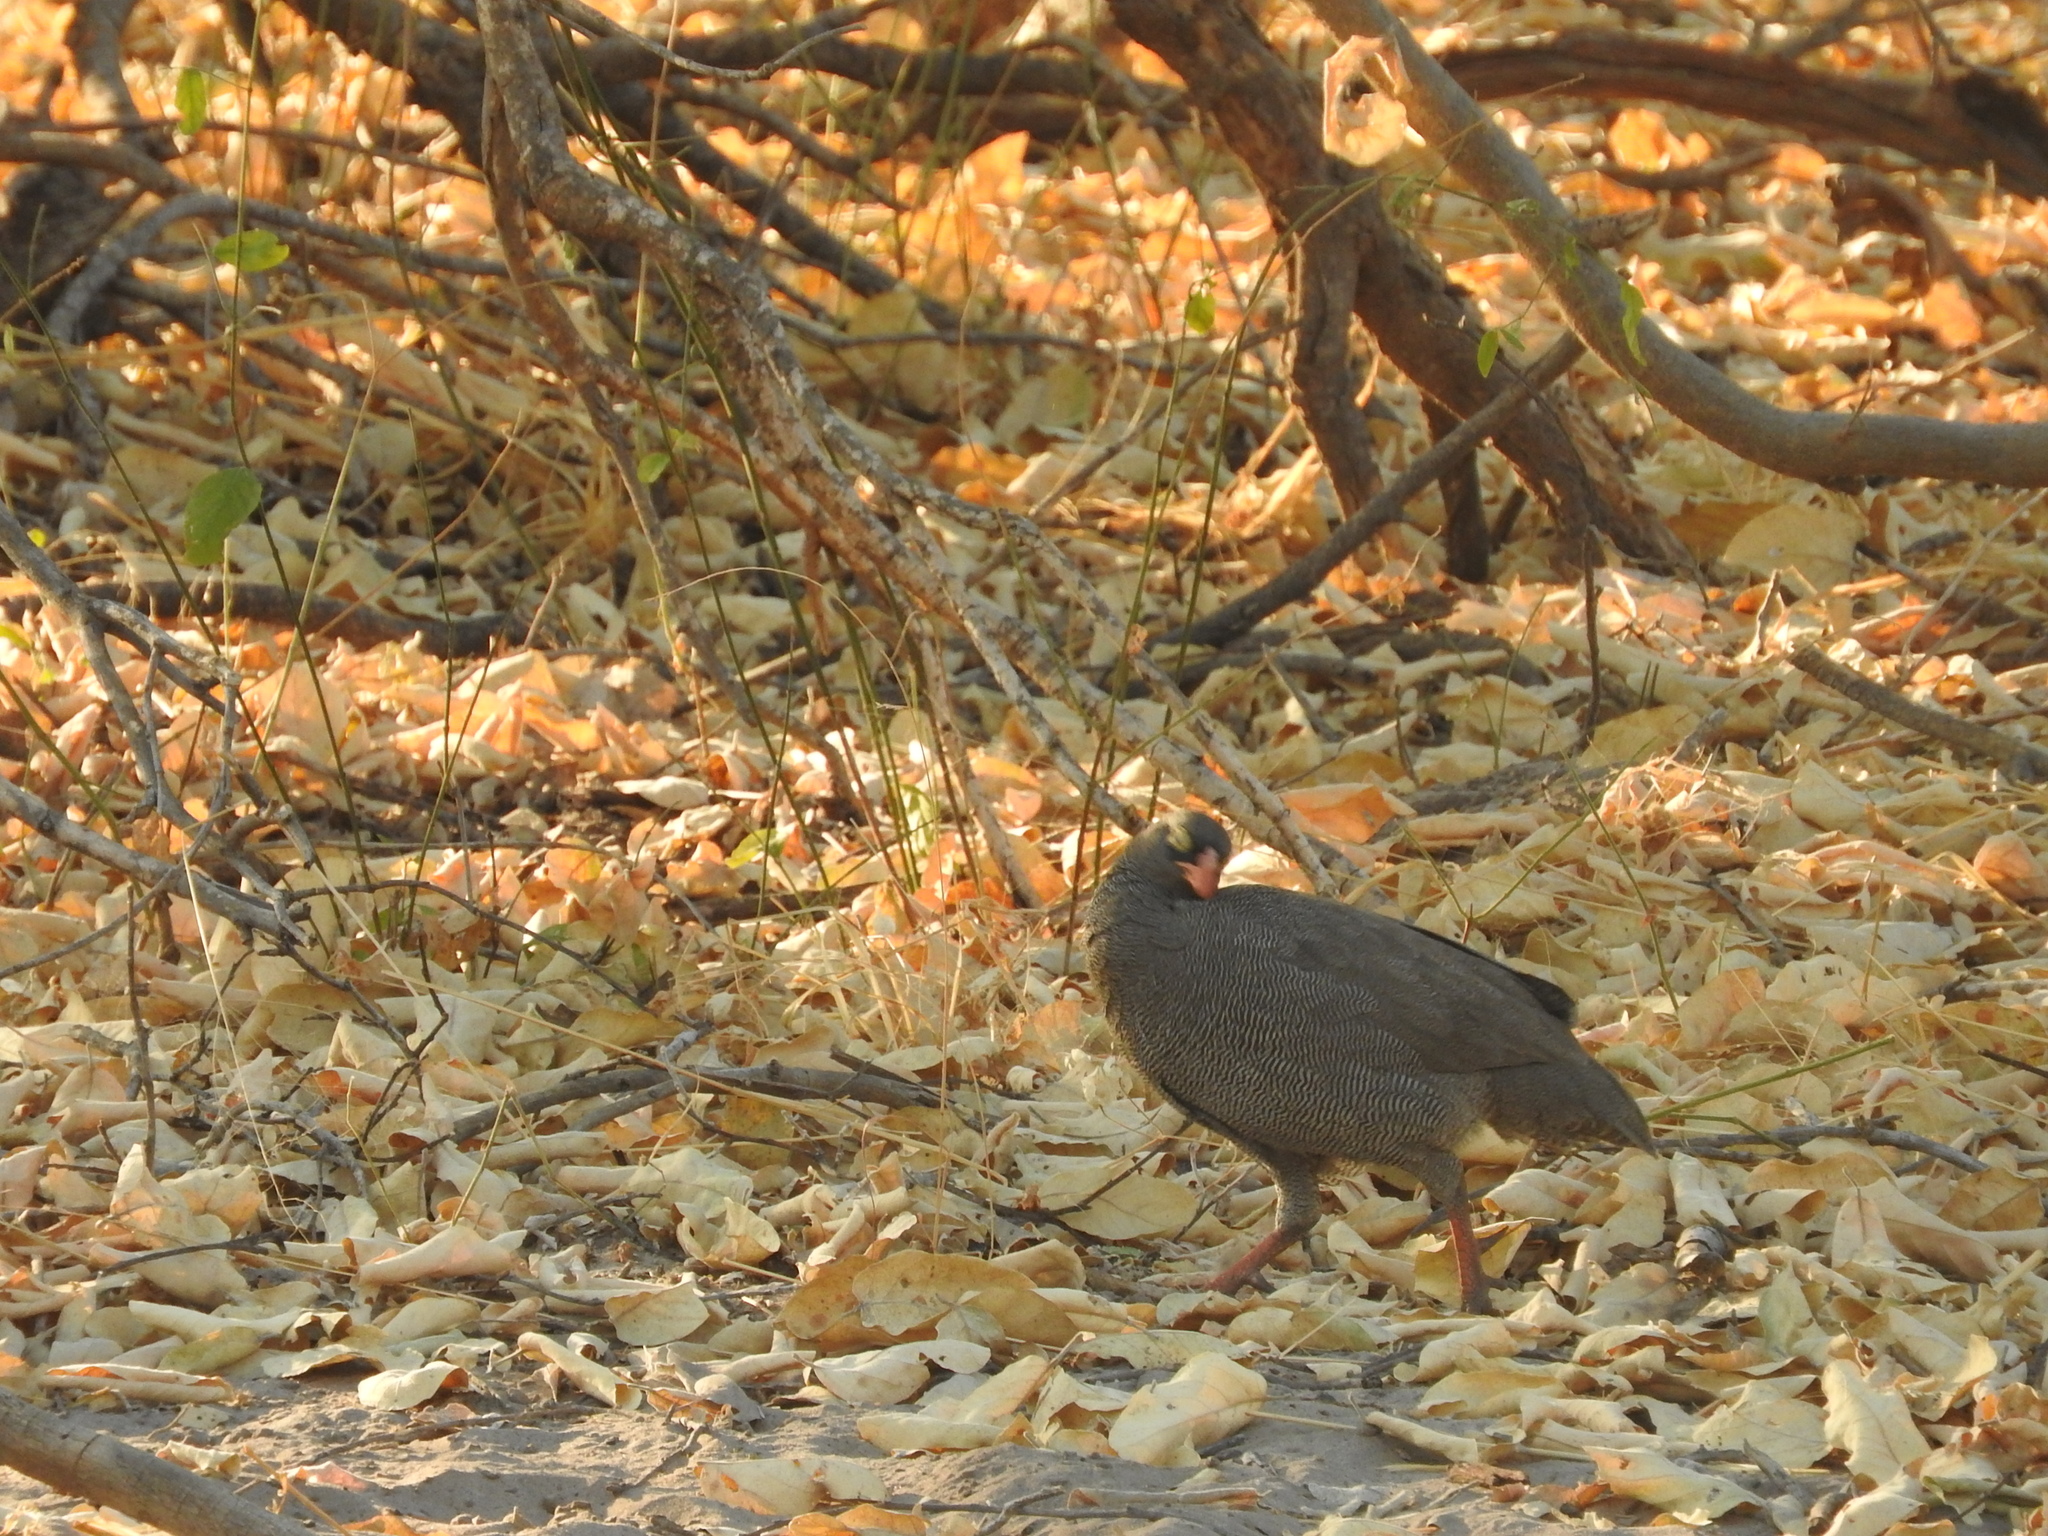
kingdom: Animalia
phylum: Chordata
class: Aves
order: Galliformes
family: Phasianidae
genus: Pternistis
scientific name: Pternistis adspersus
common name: Red-billed spurfowl
